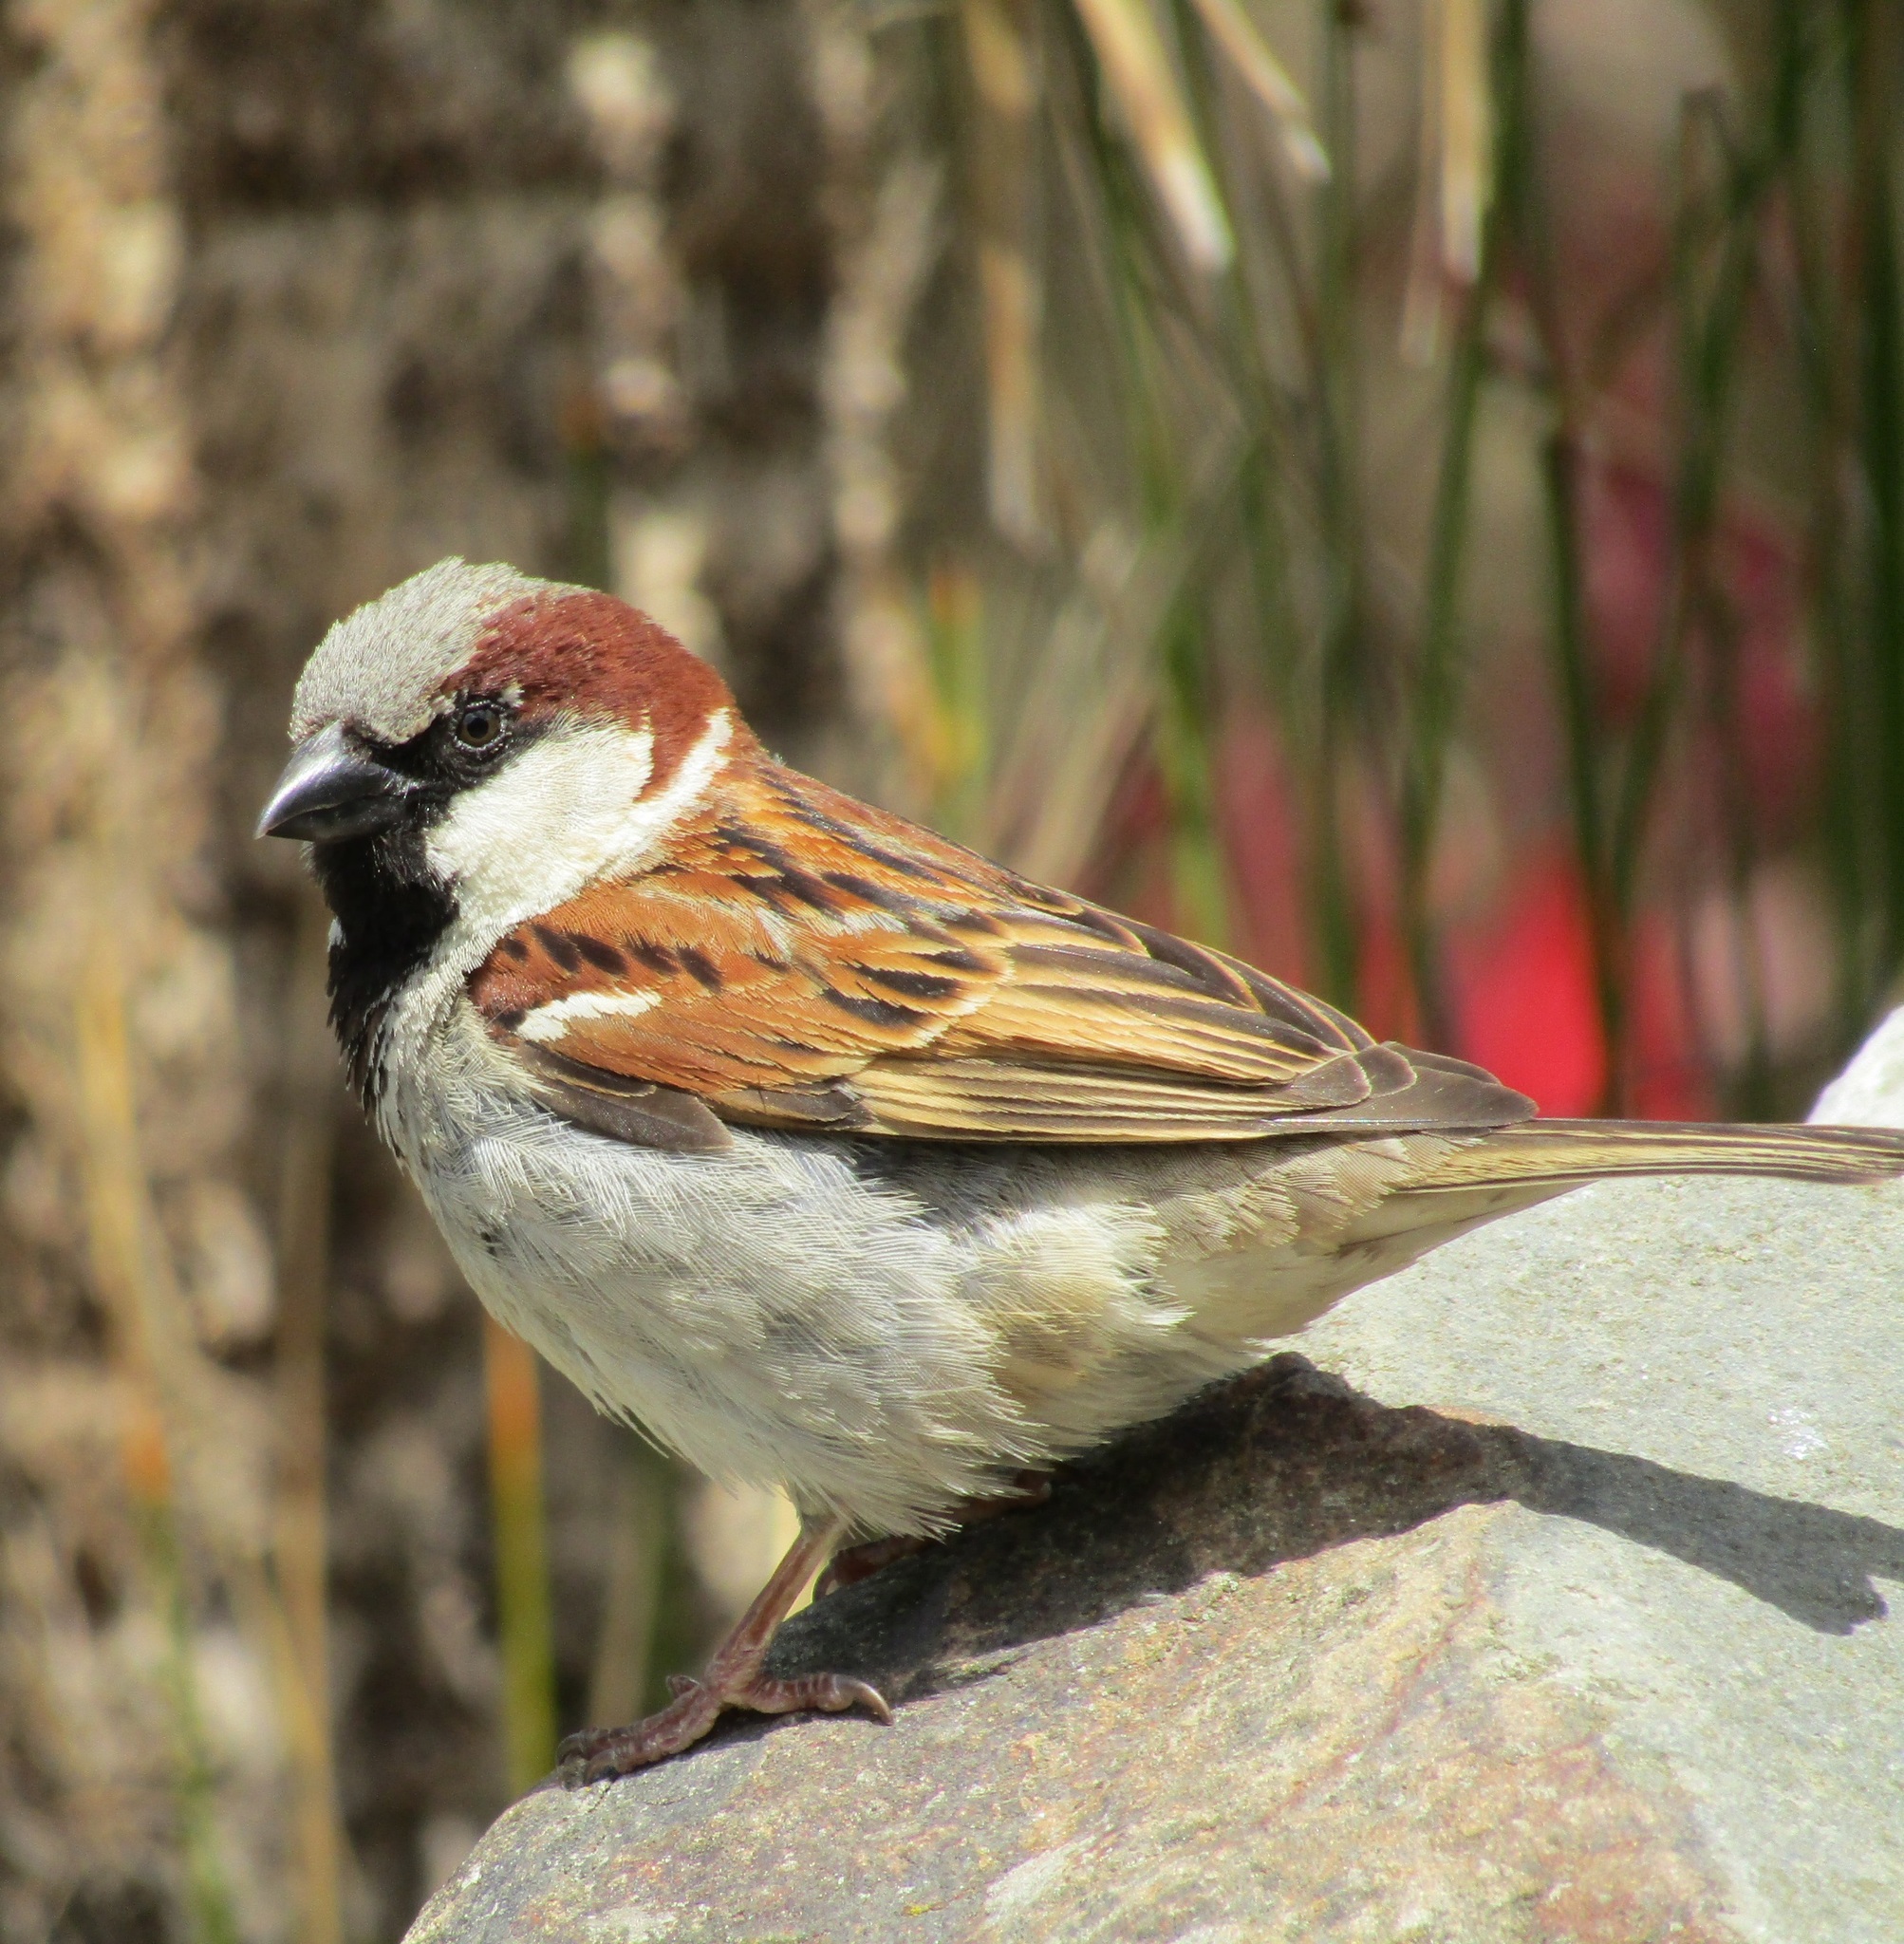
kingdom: Animalia
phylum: Chordata
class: Aves
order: Passeriformes
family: Passeridae
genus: Passer
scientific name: Passer domesticus
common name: House sparrow
